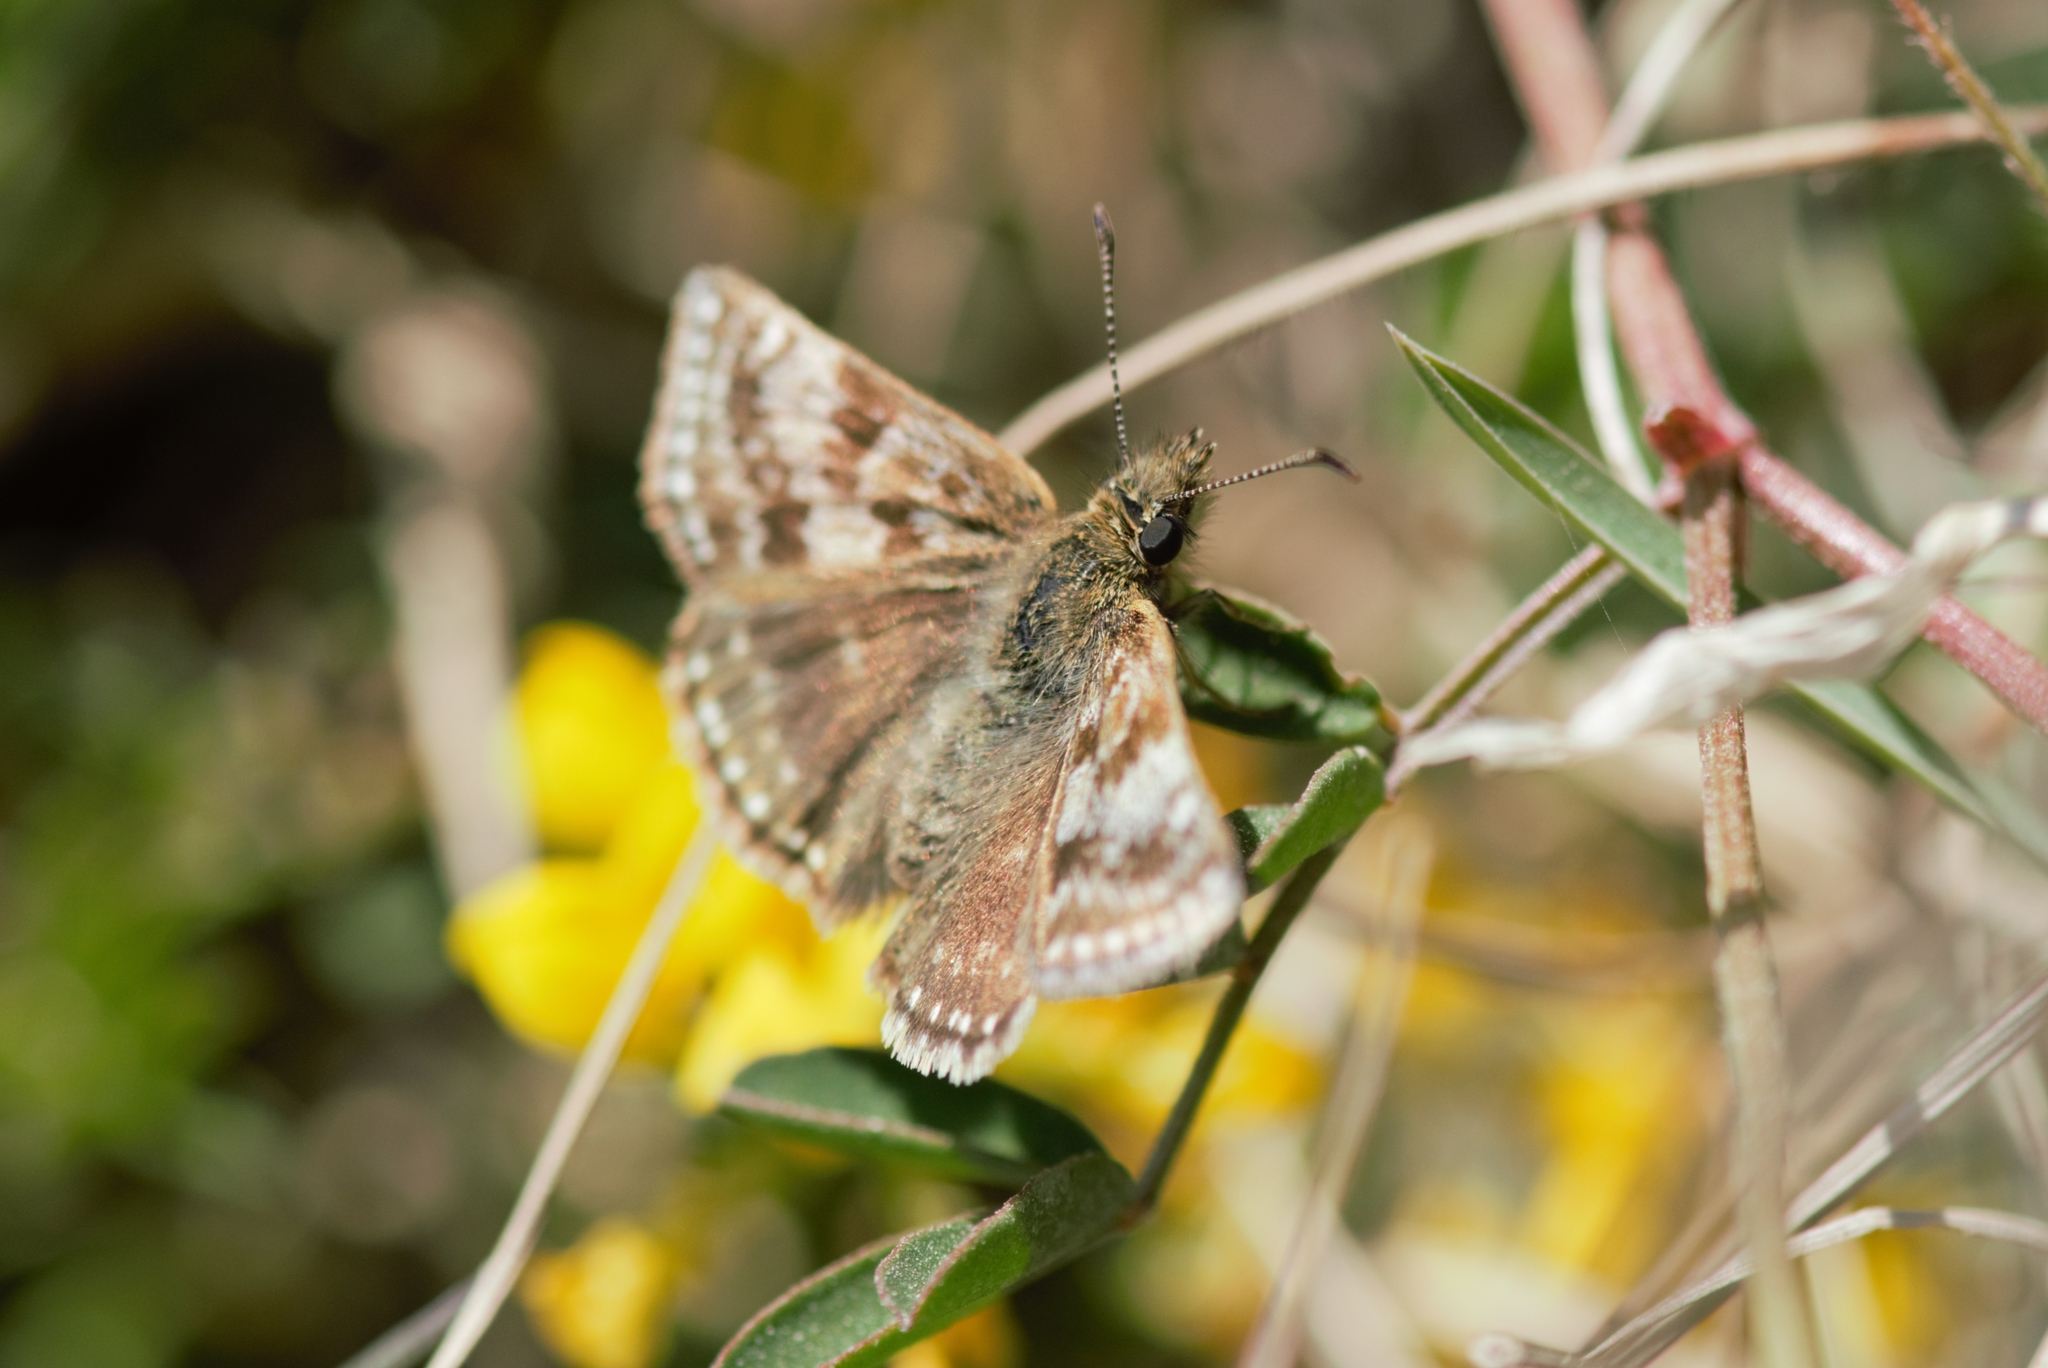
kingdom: Animalia
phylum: Arthropoda
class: Insecta
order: Lepidoptera
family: Hesperiidae
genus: Erynnis
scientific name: Erynnis tages
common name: Dingy skipper
